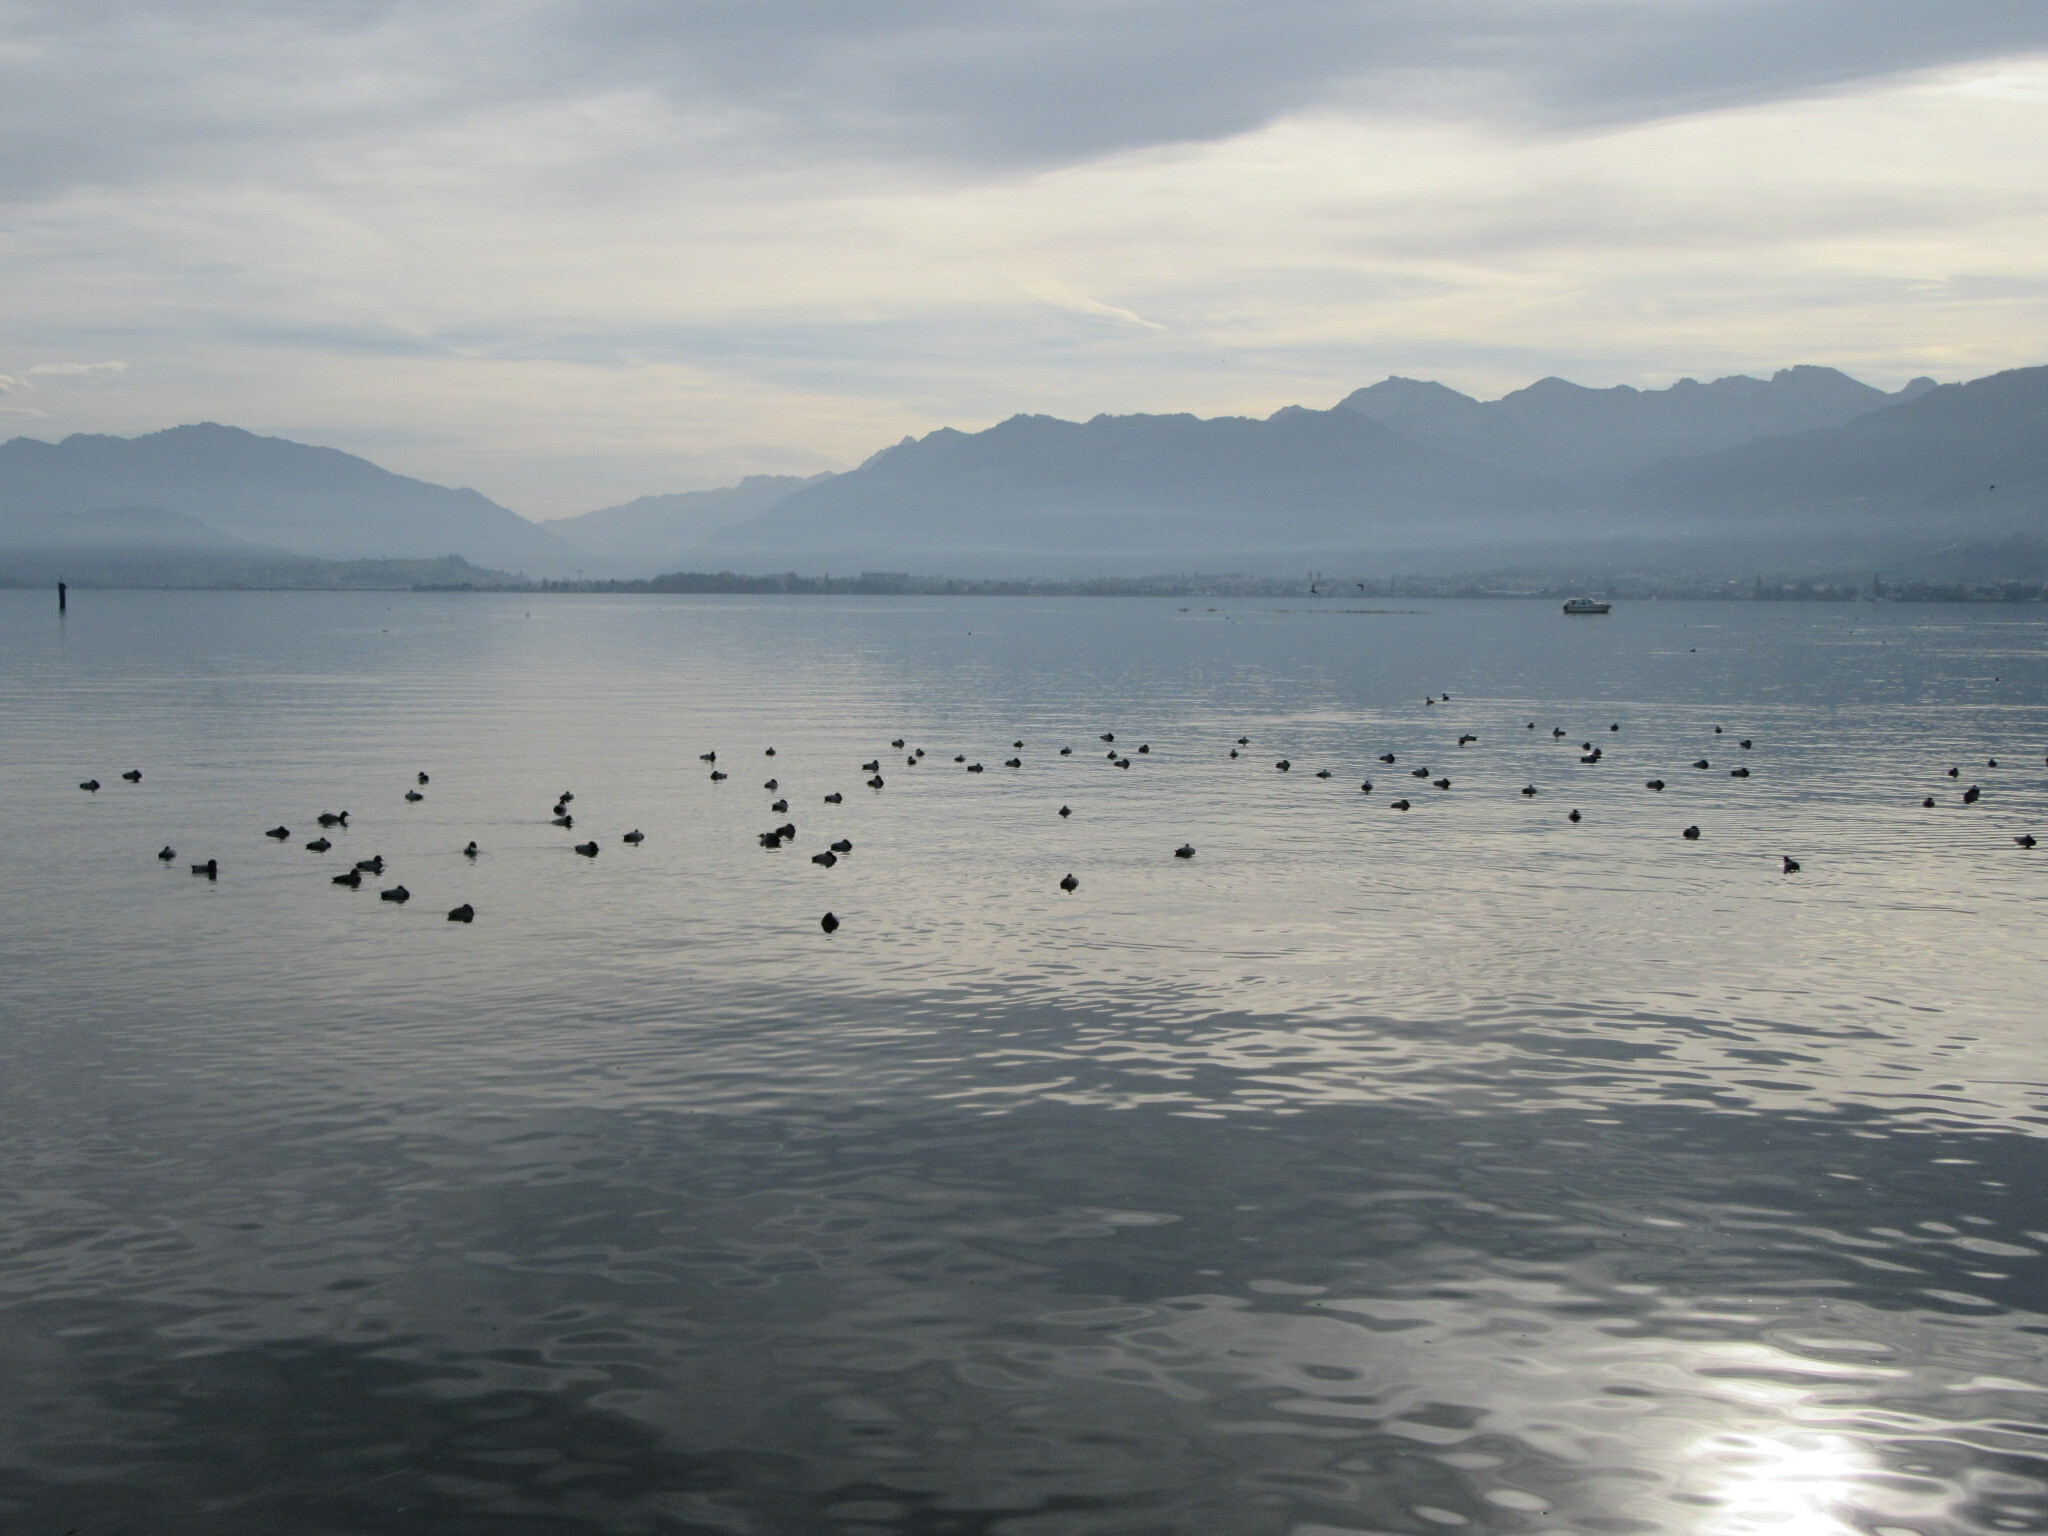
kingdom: Animalia
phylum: Chordata
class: Aves
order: Anseriformes
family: Anatidae
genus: Aythya
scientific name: Aythya ferina
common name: Common pochard
